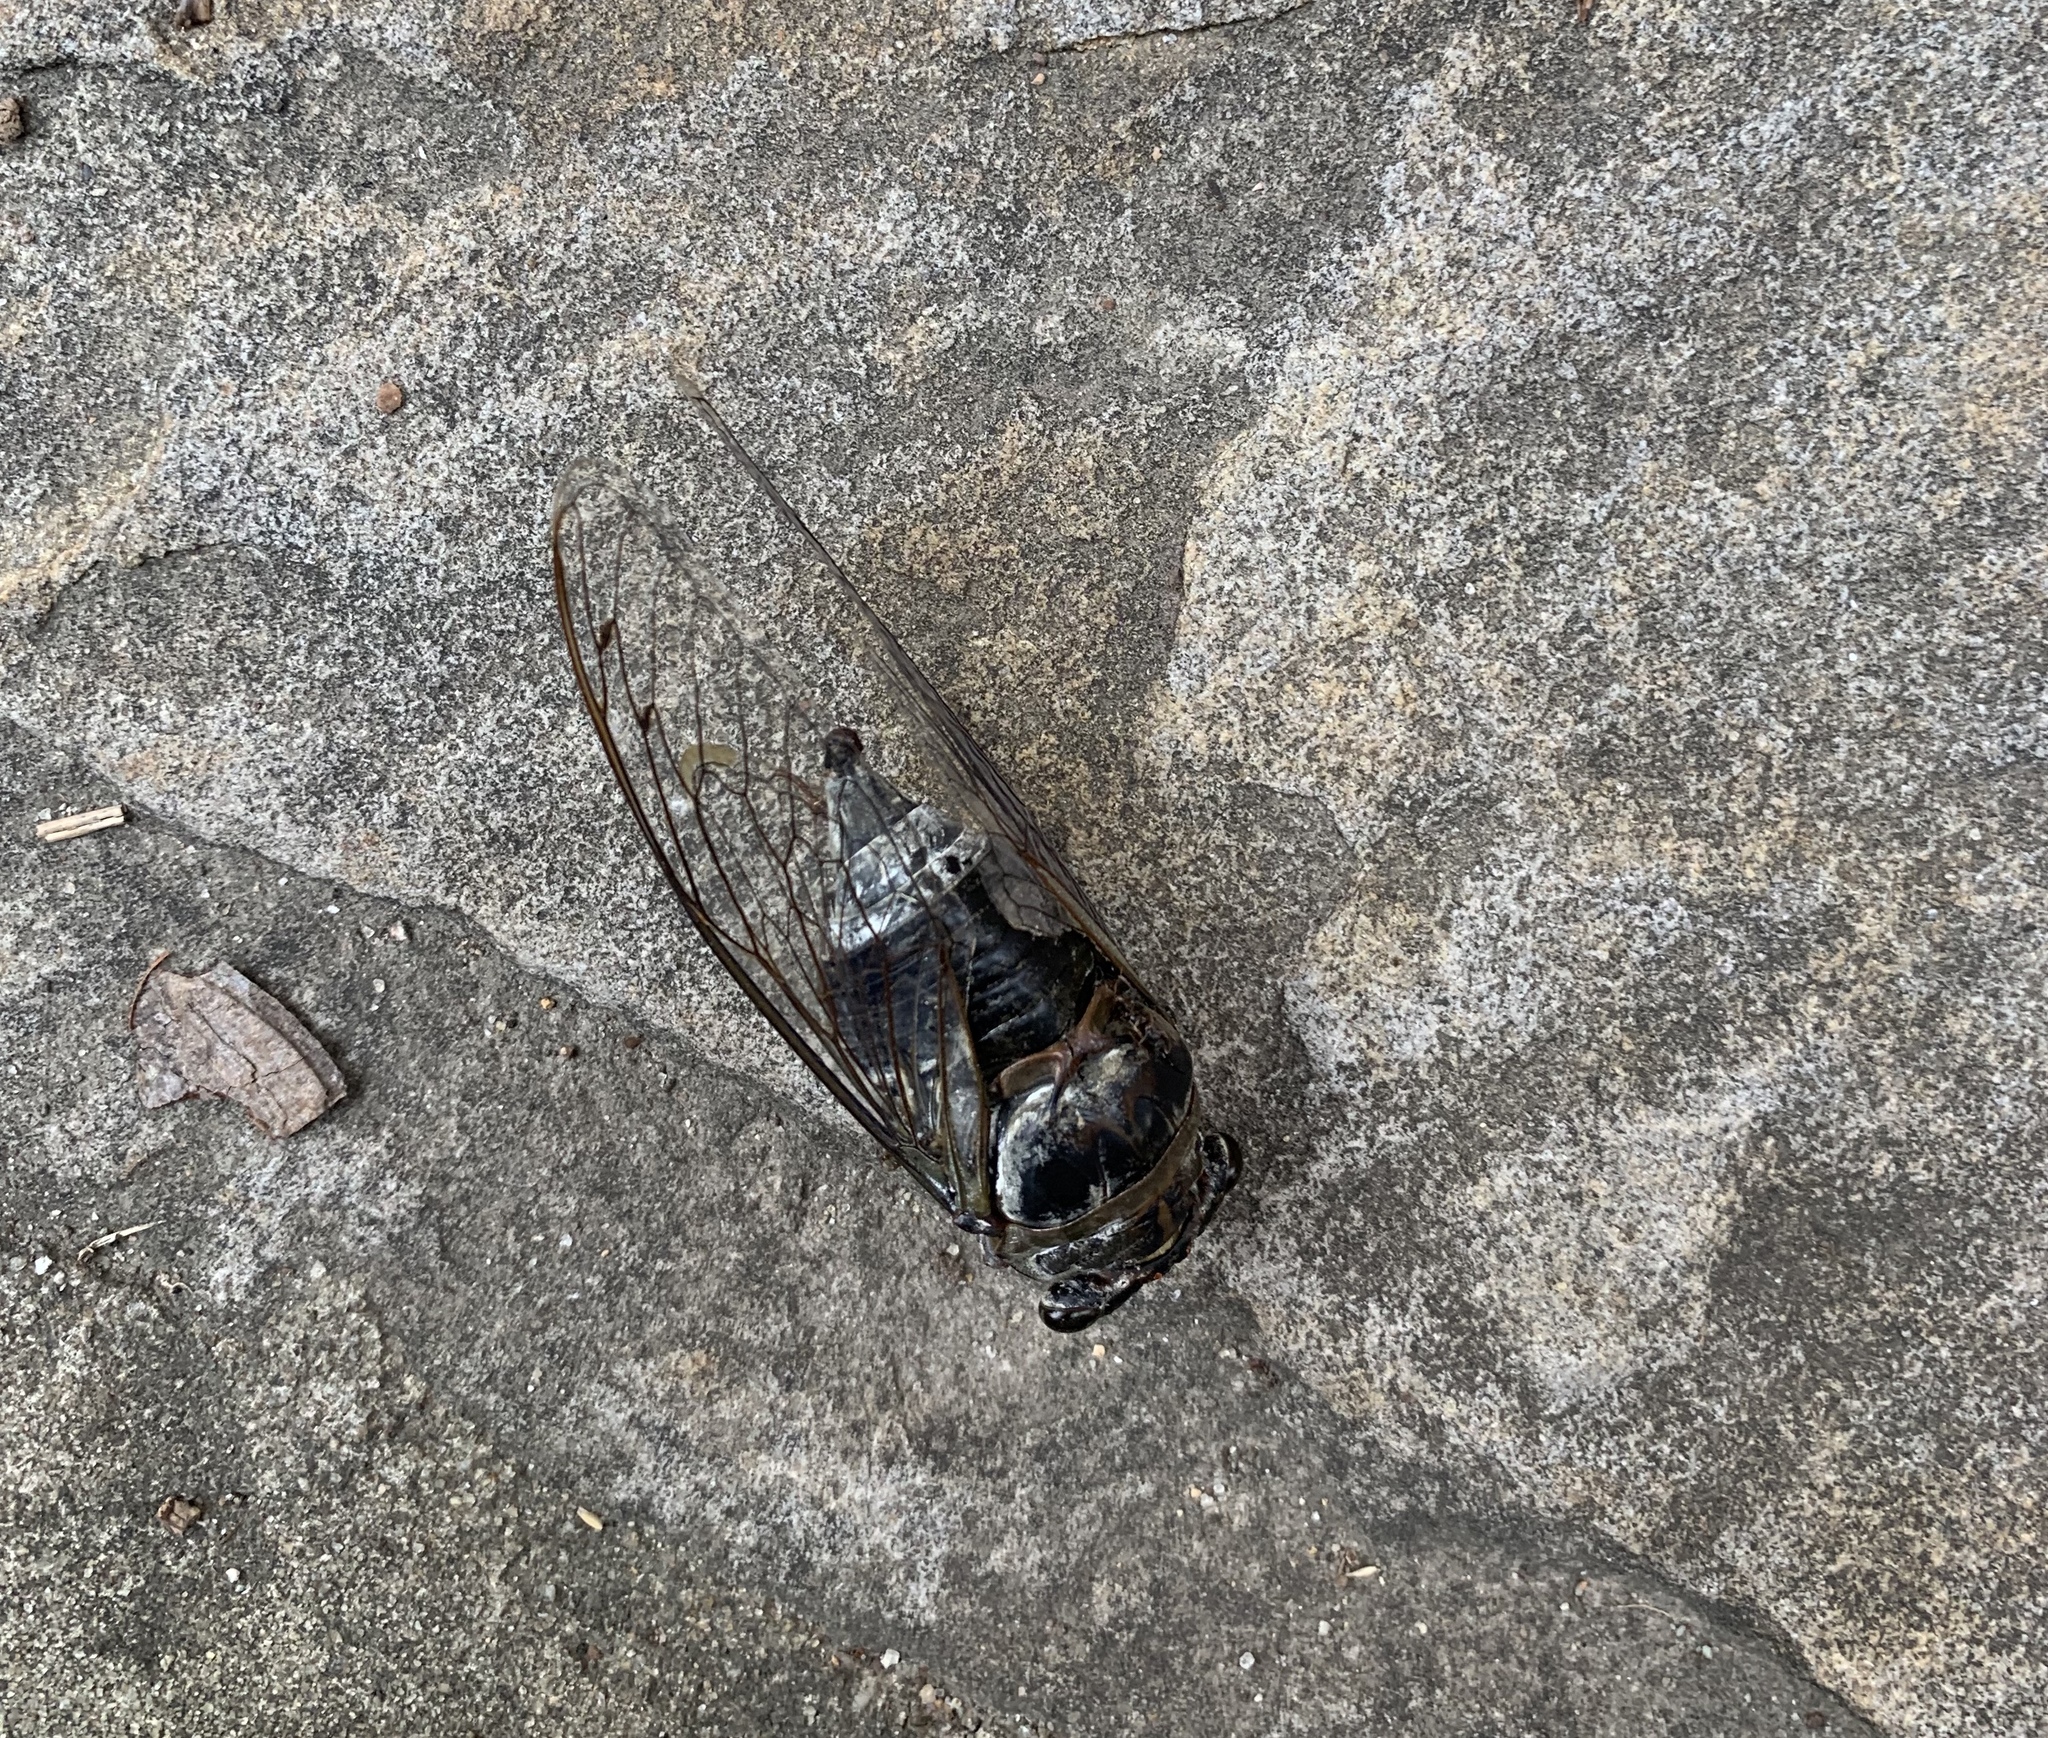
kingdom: Animalia
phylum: Arthropoda
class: Insecta
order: Hemiptera
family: Cicadidae
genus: Diceroprocta
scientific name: Diceroprocta grossa
